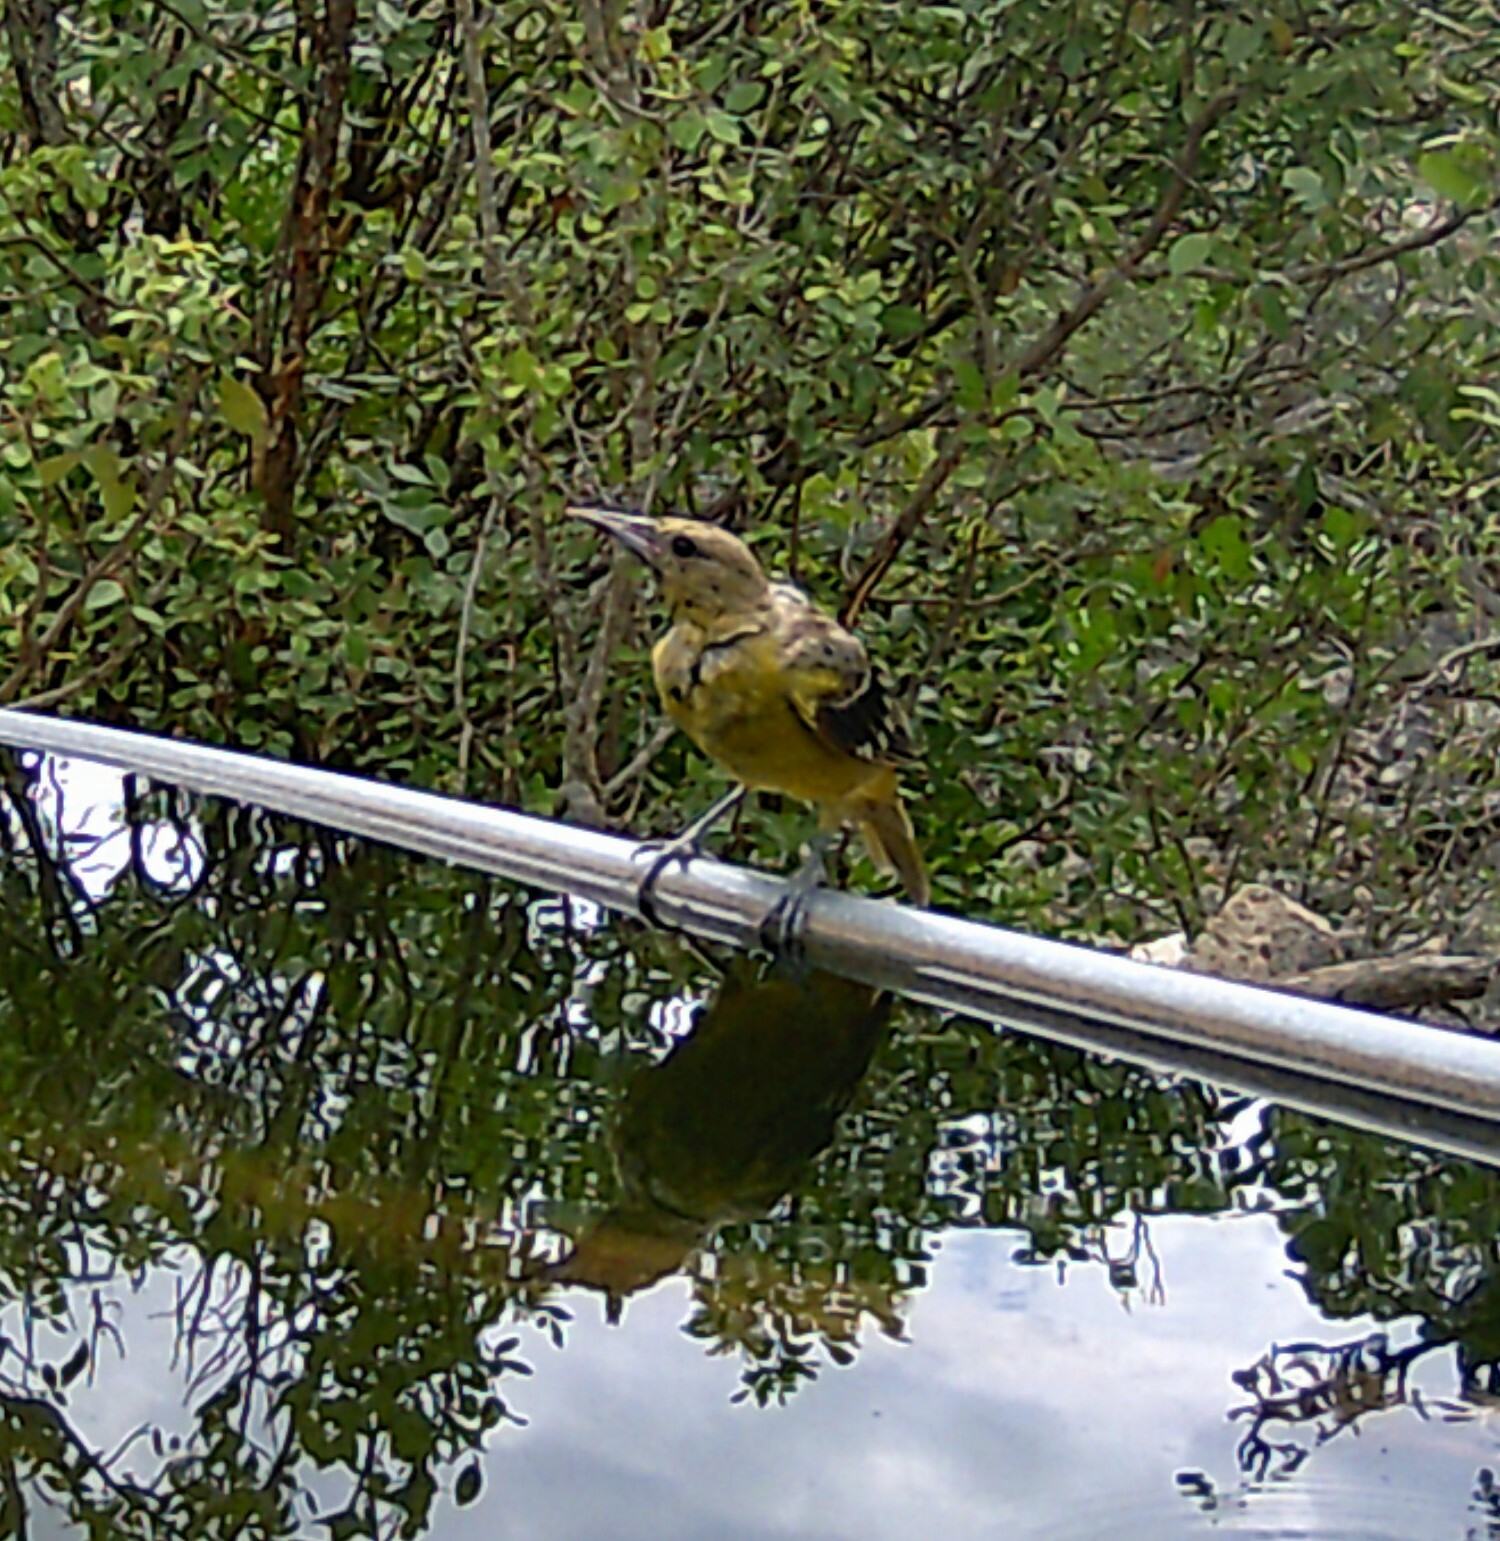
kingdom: Animalia
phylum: Chordata
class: Aves
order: Passeriformes
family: Icteridae
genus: Icterus
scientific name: Icterus parisorum
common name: Scott's oriole
